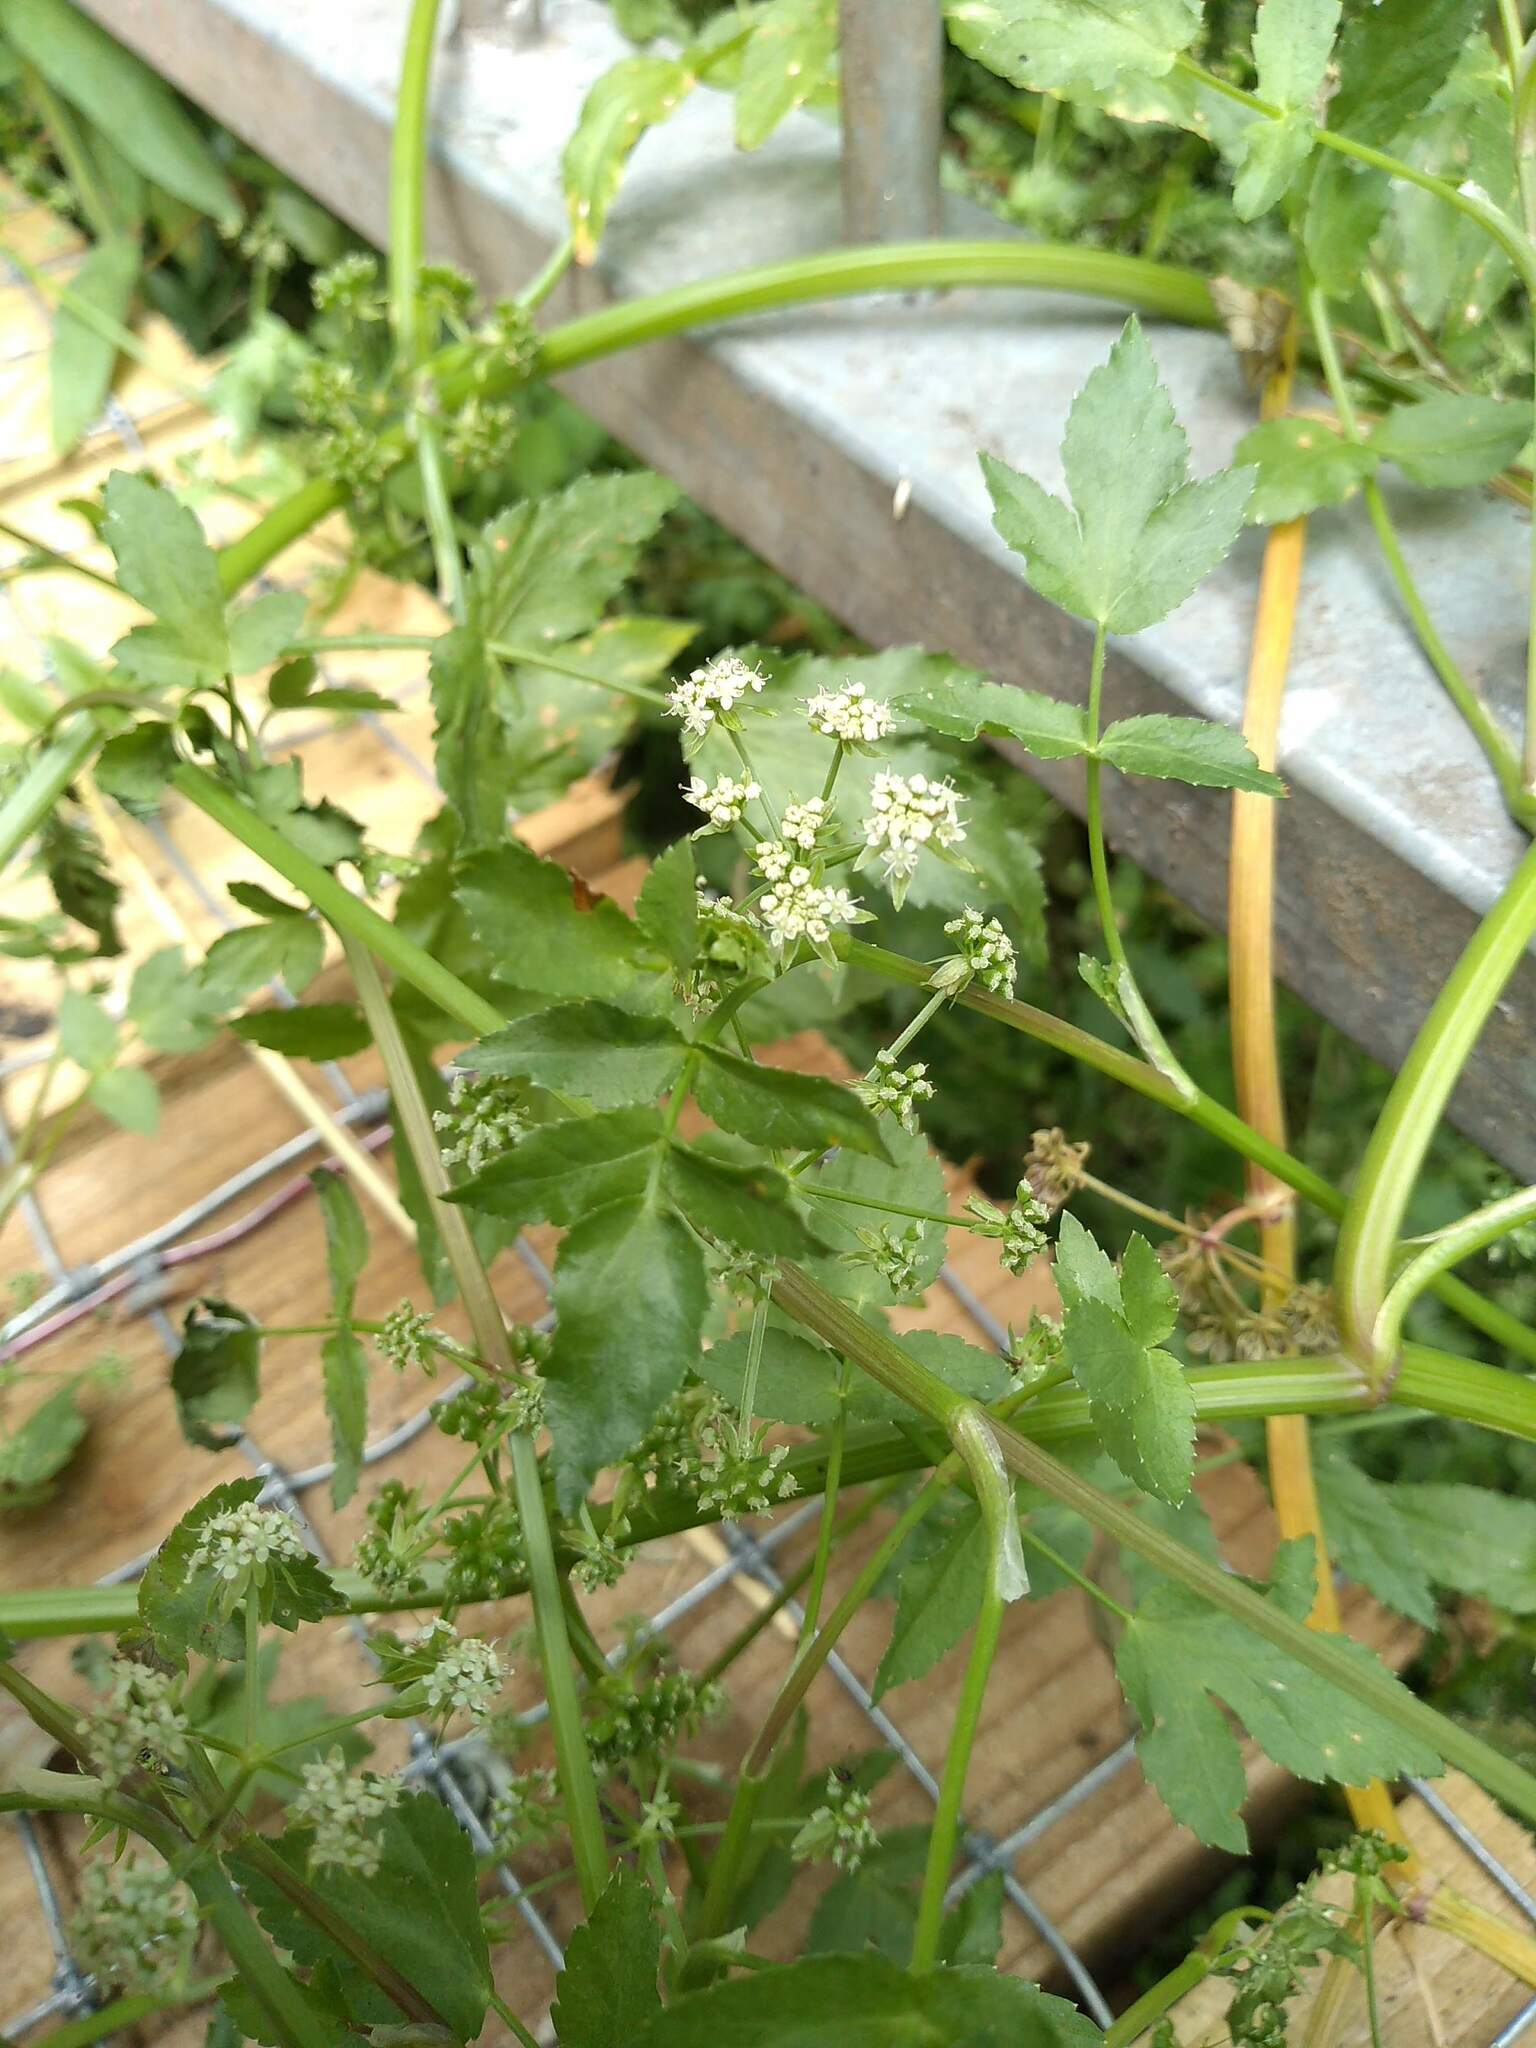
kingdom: Plantae
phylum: Tracheophyta
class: Magnoliopsida
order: Apiales
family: Apiaceae
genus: Helosciadium
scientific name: Helosciadium nodiflorum
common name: Fool's-watercress
